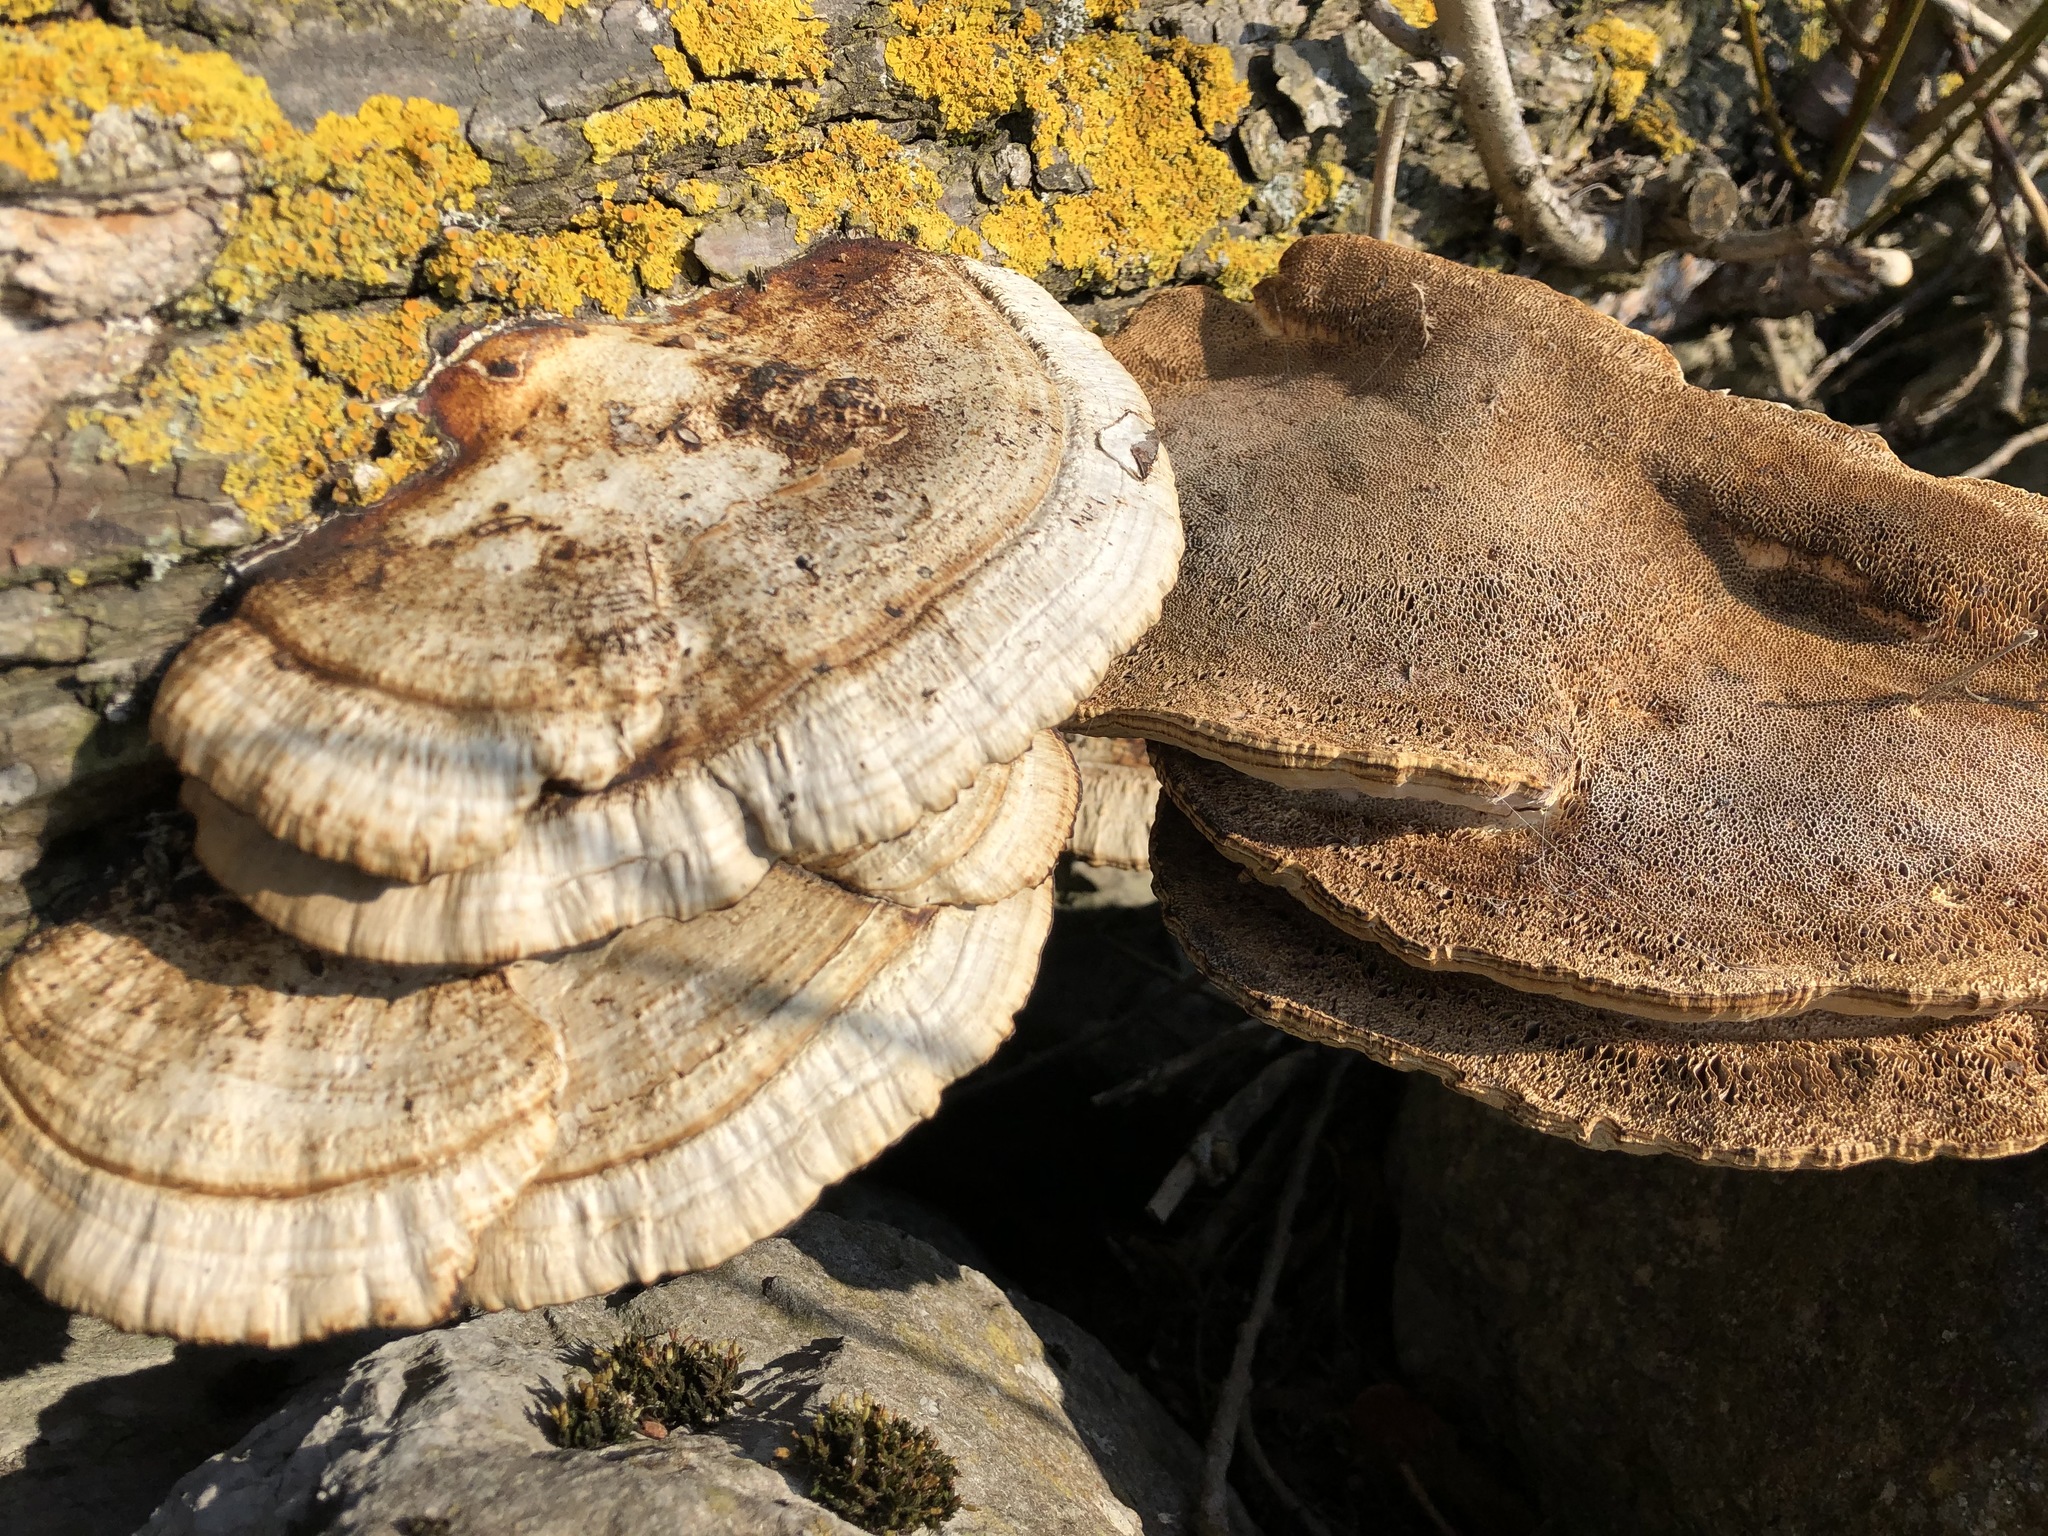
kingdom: Fungi
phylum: Basidiomycota
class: Agaricomycetes
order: Polyporales
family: Polyporaceae
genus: Daedaleopsis
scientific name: Daedaleopsis confragosa
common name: Blushing bracket
